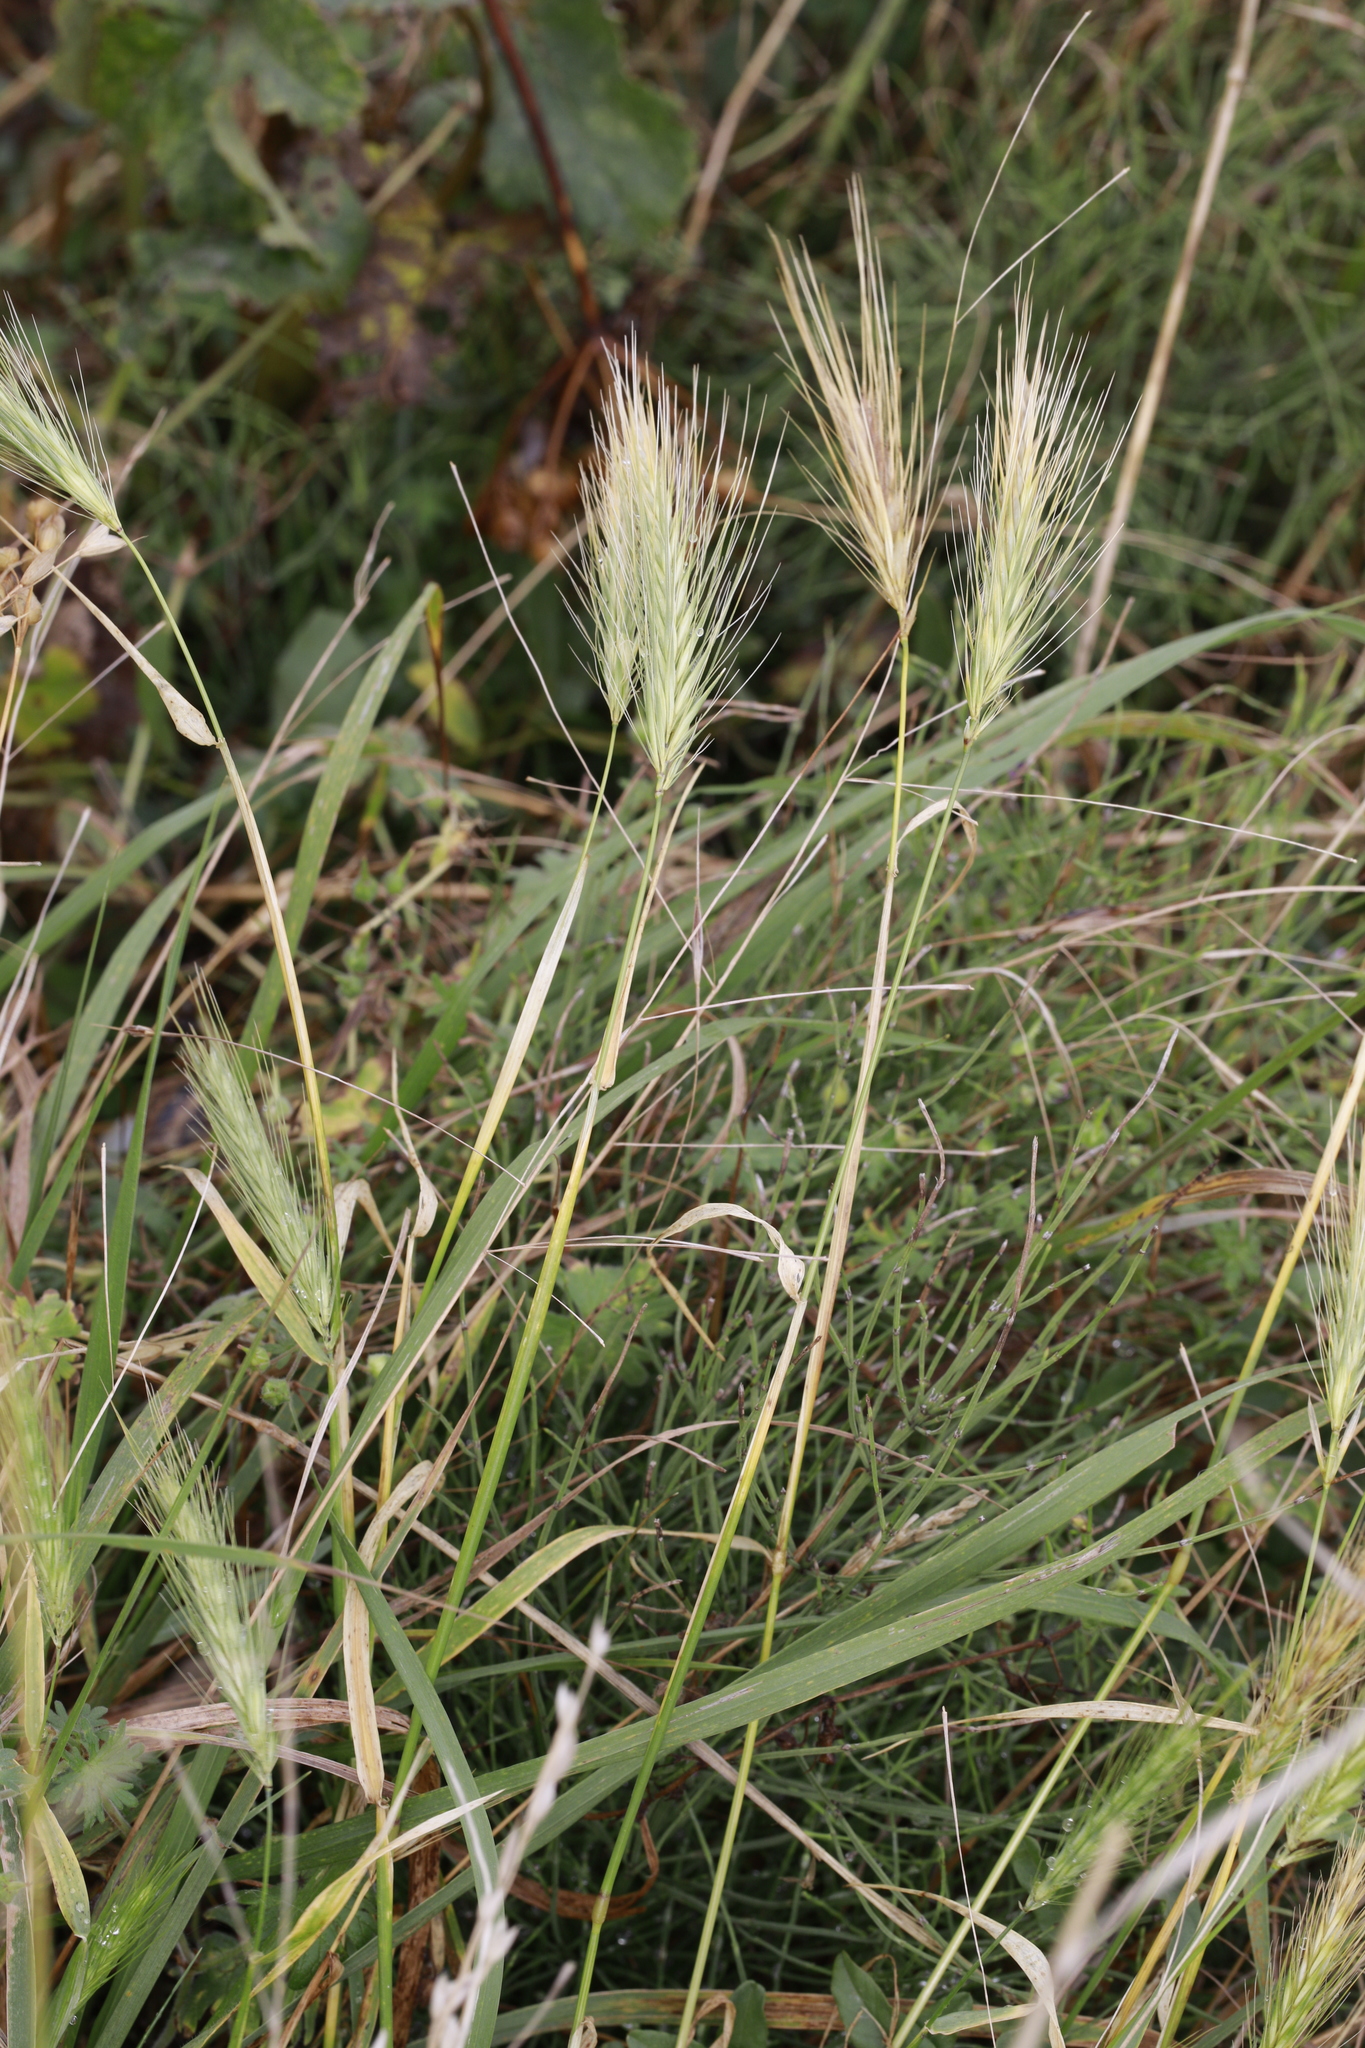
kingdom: Plantae
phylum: Tracheophyta
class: Liliopsida
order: Poales
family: Poaceae
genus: Hordeum
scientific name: Hordeum murinum
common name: Wall barley
